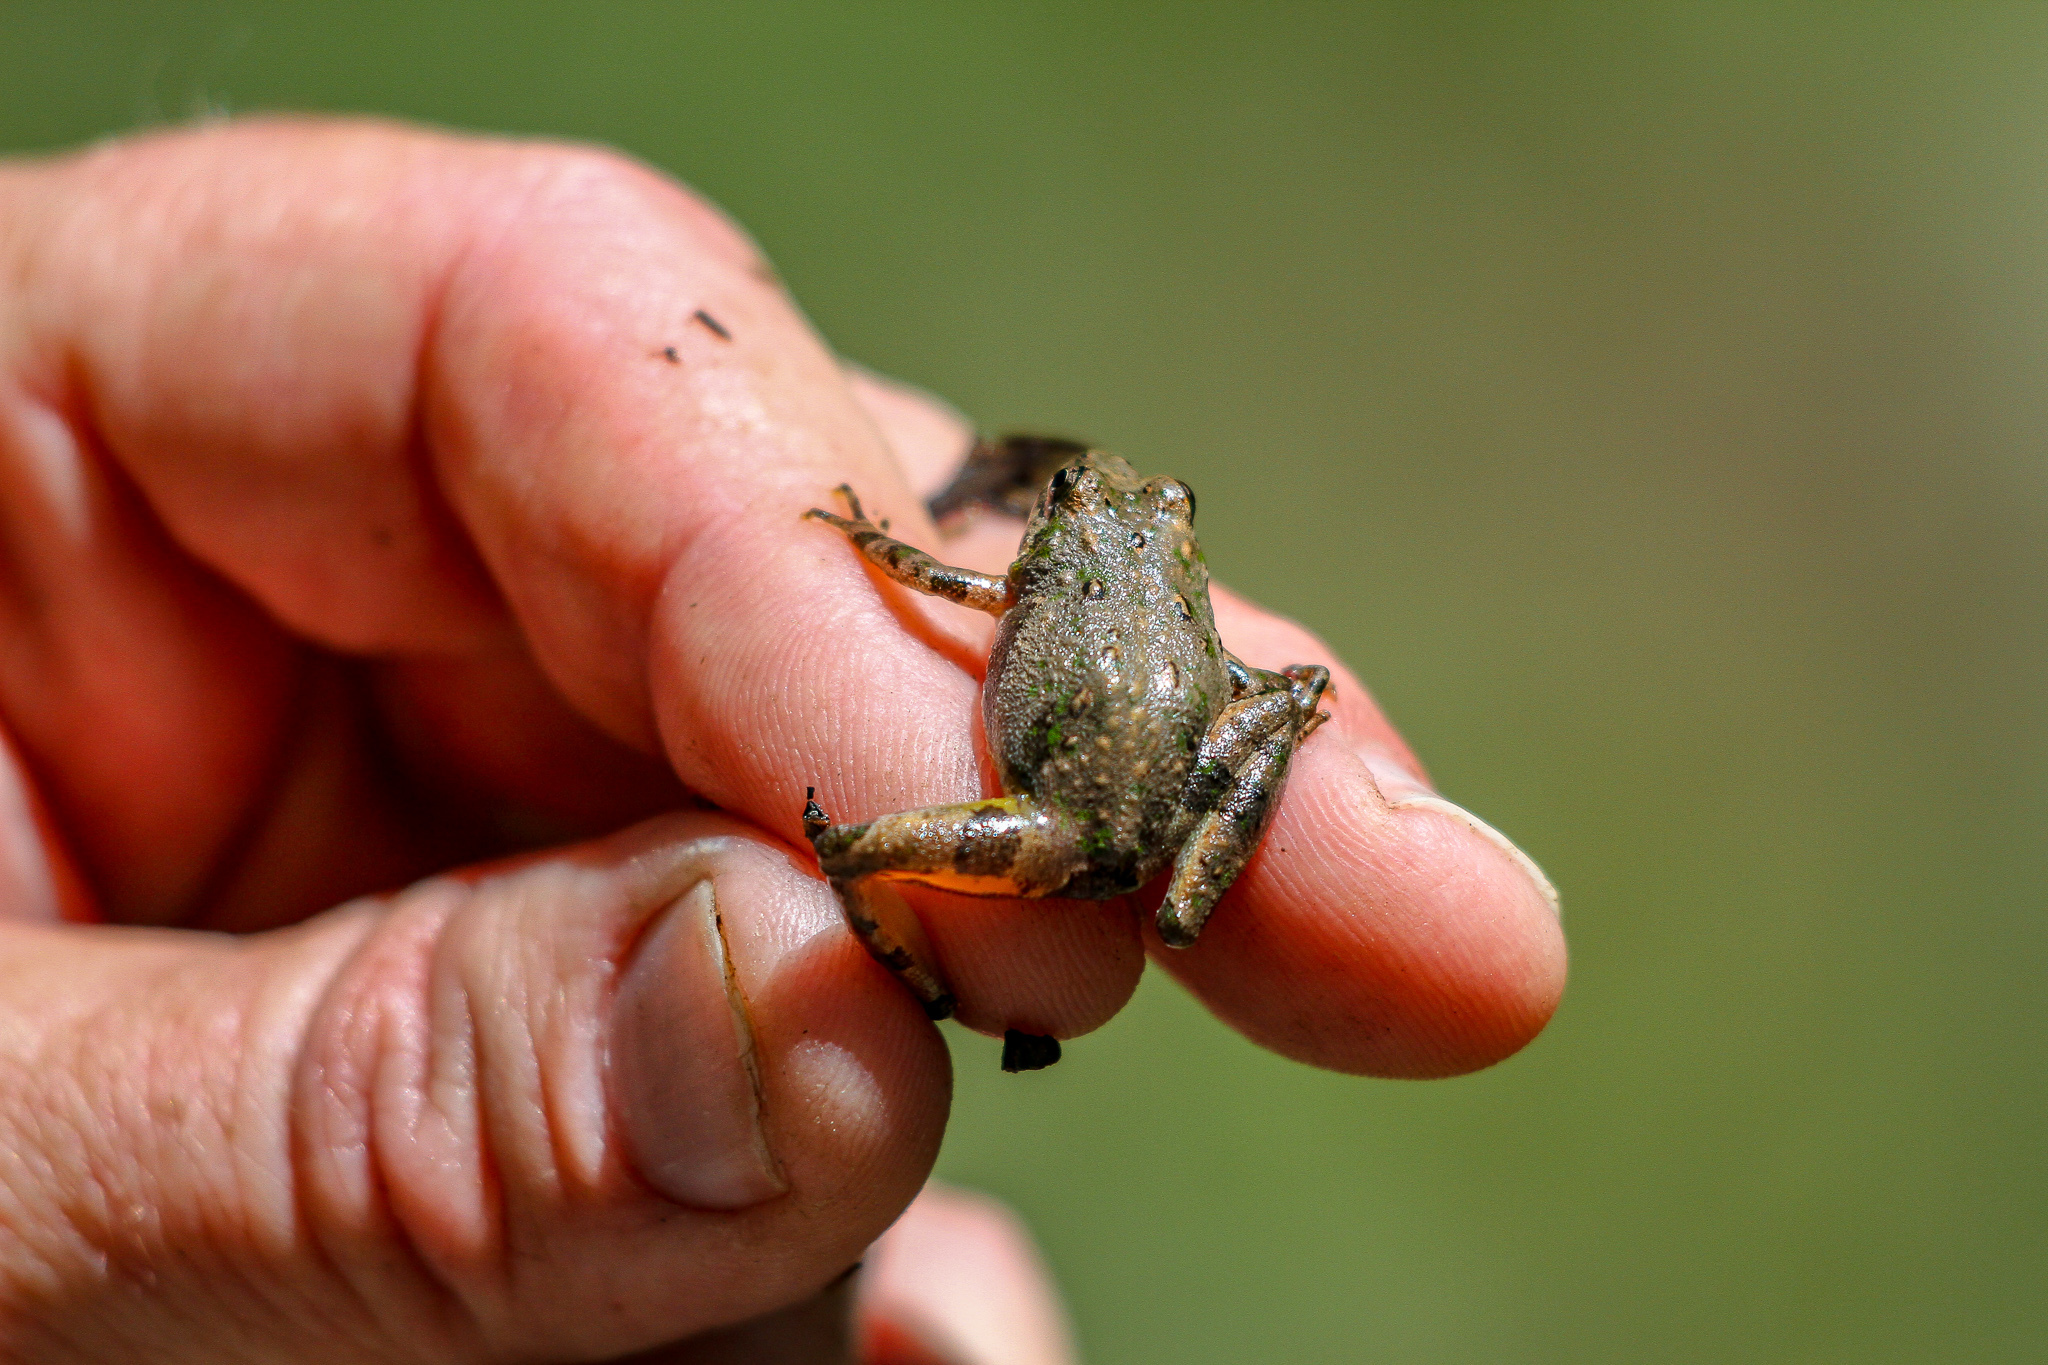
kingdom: Animalia
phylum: Chordata
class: Amphibia
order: Anura
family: Hylidae
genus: Acris
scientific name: Acris crepitans
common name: Northern cricket frog
